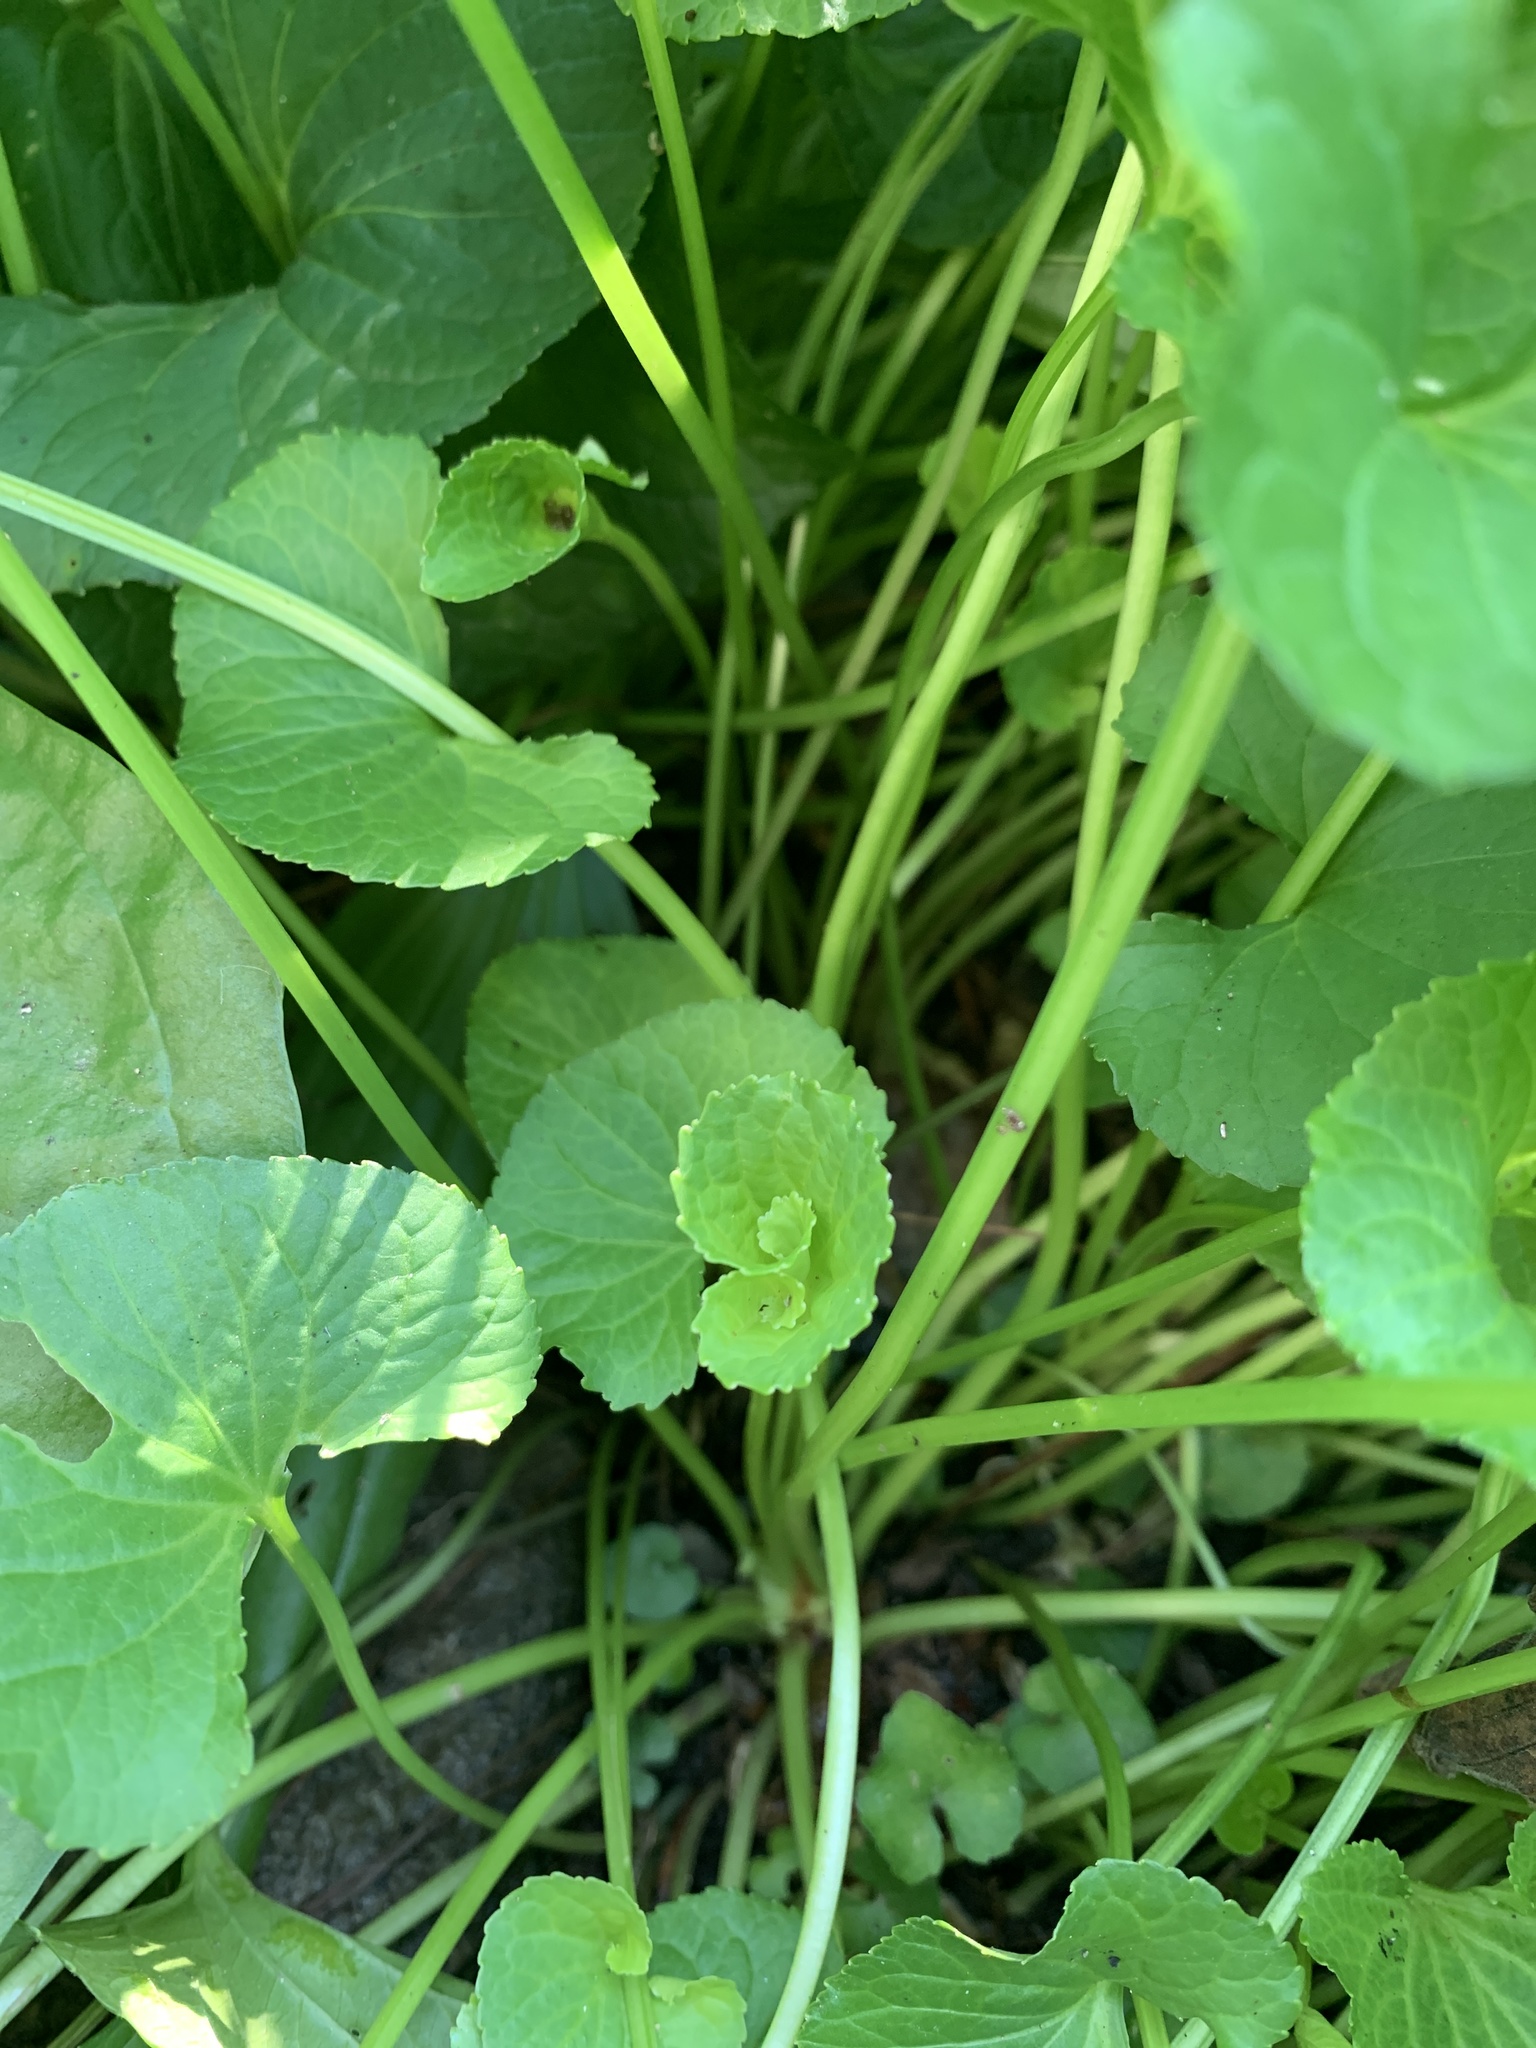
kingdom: Plantae
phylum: Tracheophyta
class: Magnoliopsida
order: Malpighiales
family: Violaceae
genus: Viola
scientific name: Viola sororia
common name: Dooryard violet
